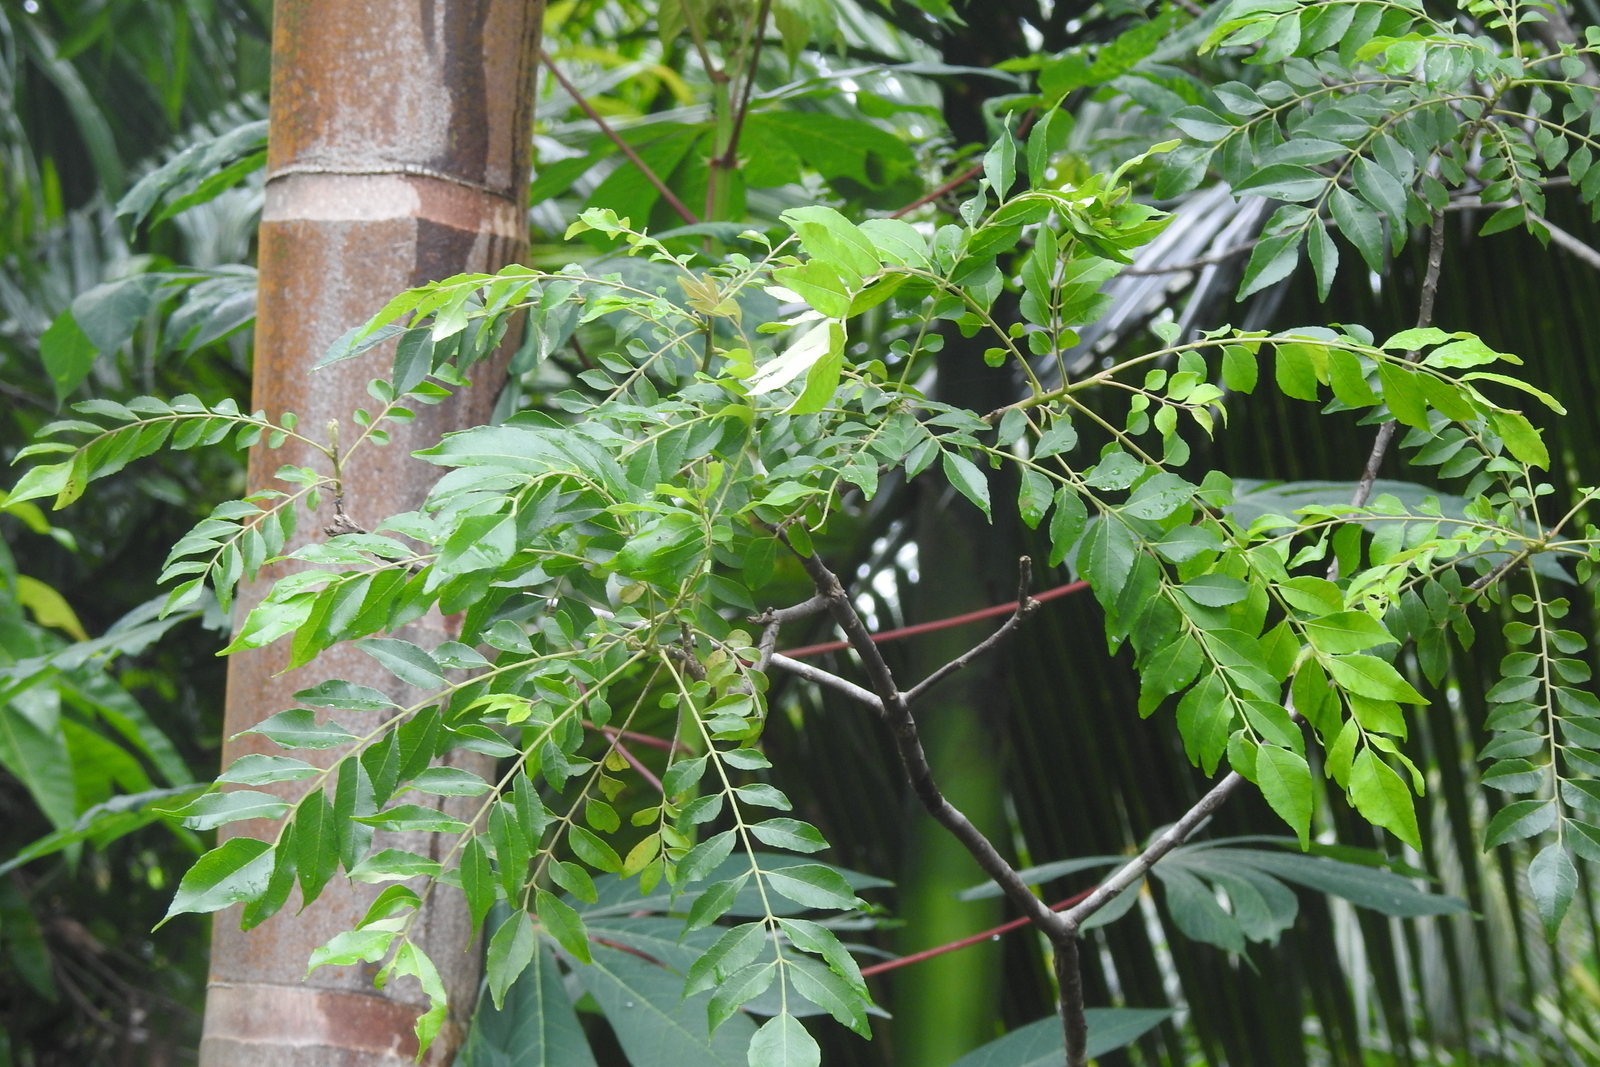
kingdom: Plantae
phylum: Tracheophyta
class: Magnoliopsida
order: Sapindales
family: Rutaceae
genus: Murraya
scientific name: Murraya koenigii
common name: Curry-plant
